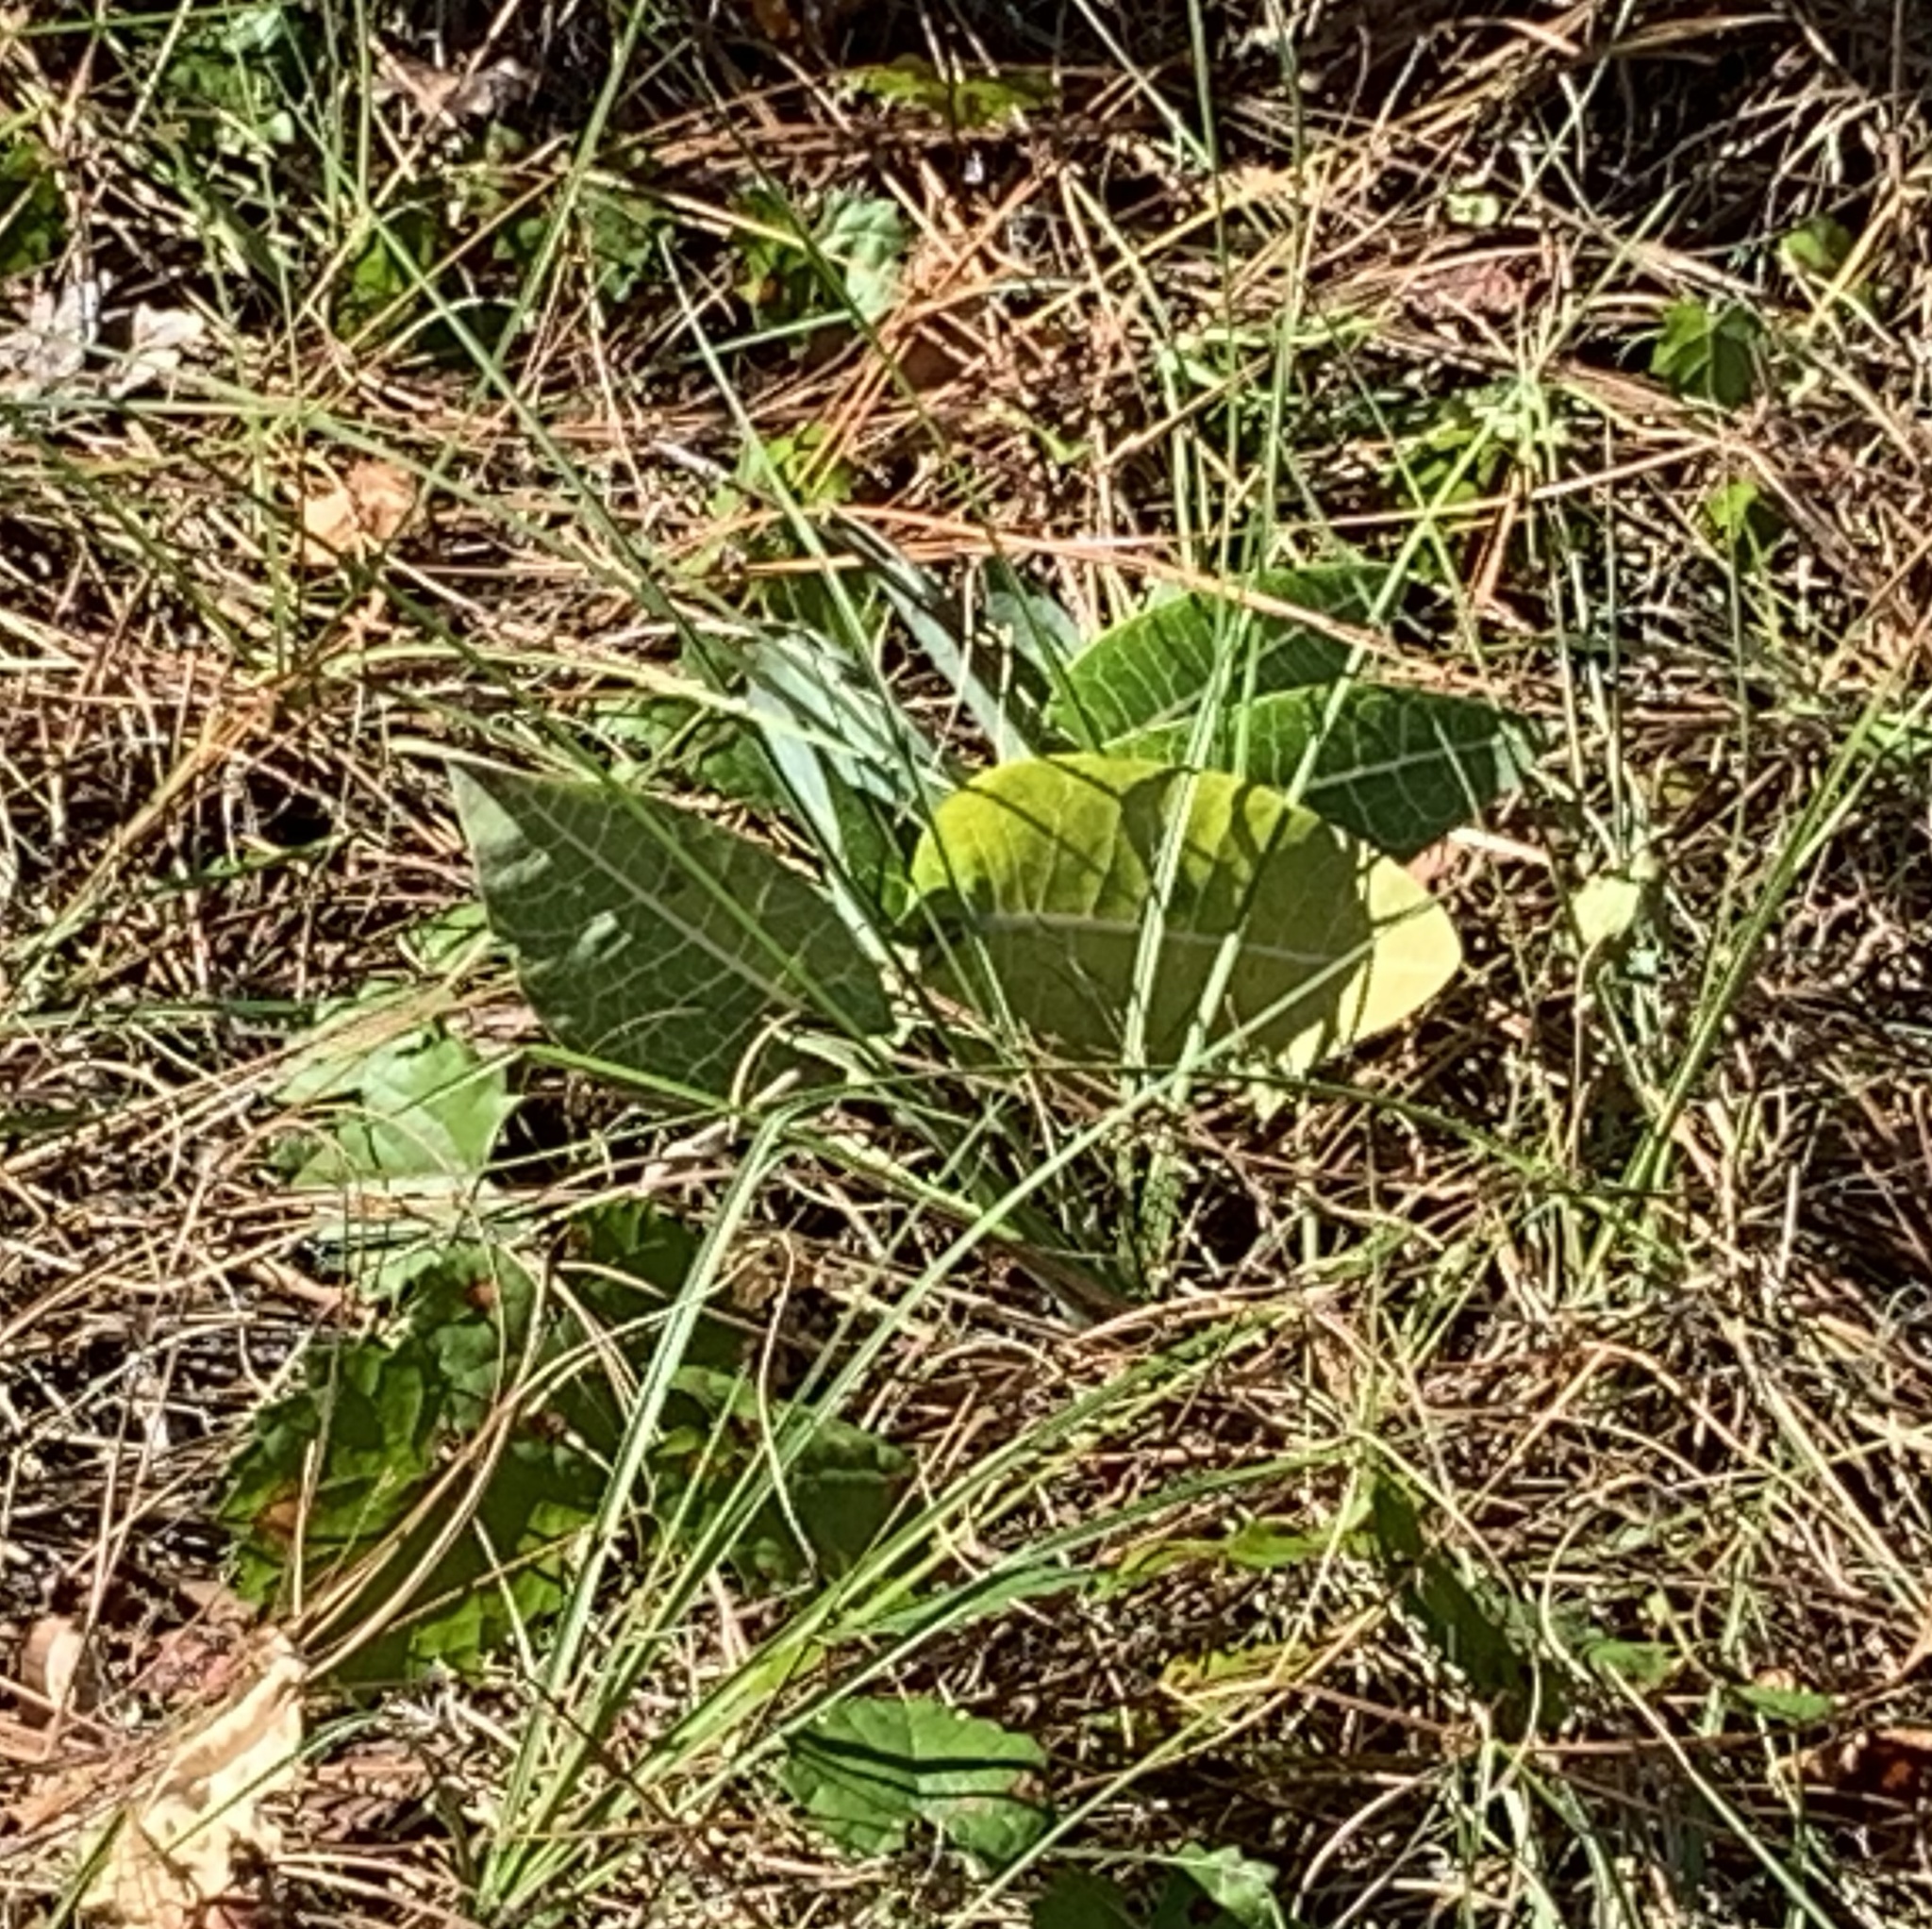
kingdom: Plantae
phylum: Tracheophyta
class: Magnoliopsida
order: Gentianales
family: Apocynaceae
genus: Asclepias
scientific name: Asclepias humistrata
